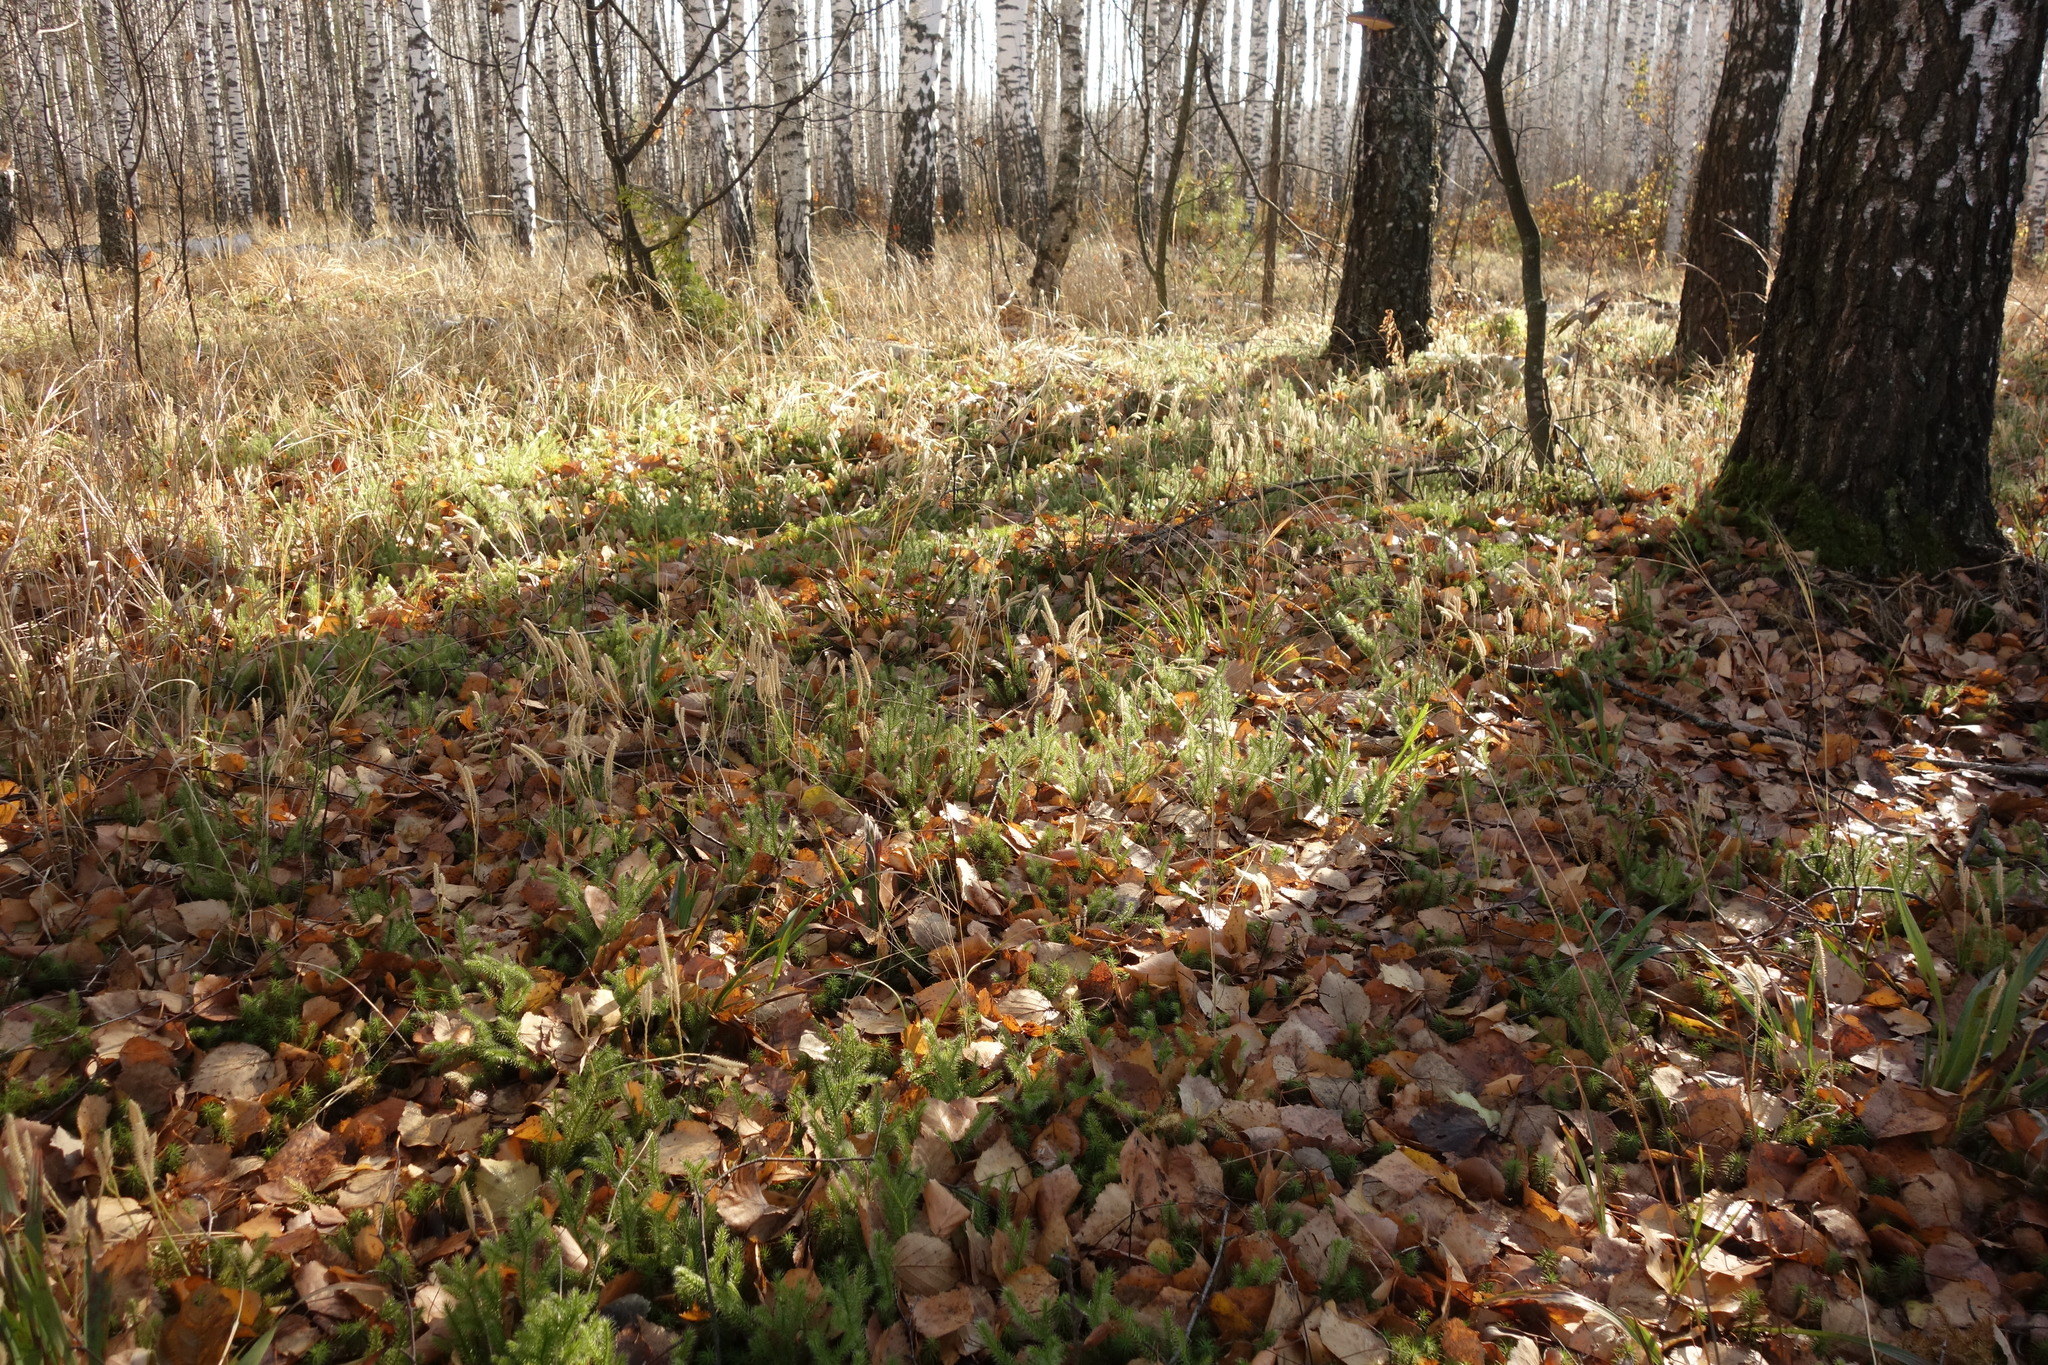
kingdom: Plantae
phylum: Tracheophyta
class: Lycopodiopsida
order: Lycopodiales
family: Lycopodiaceae
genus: Lycopodium
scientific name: Lycopodium clavatum
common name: Stag's-horn clubmoss
